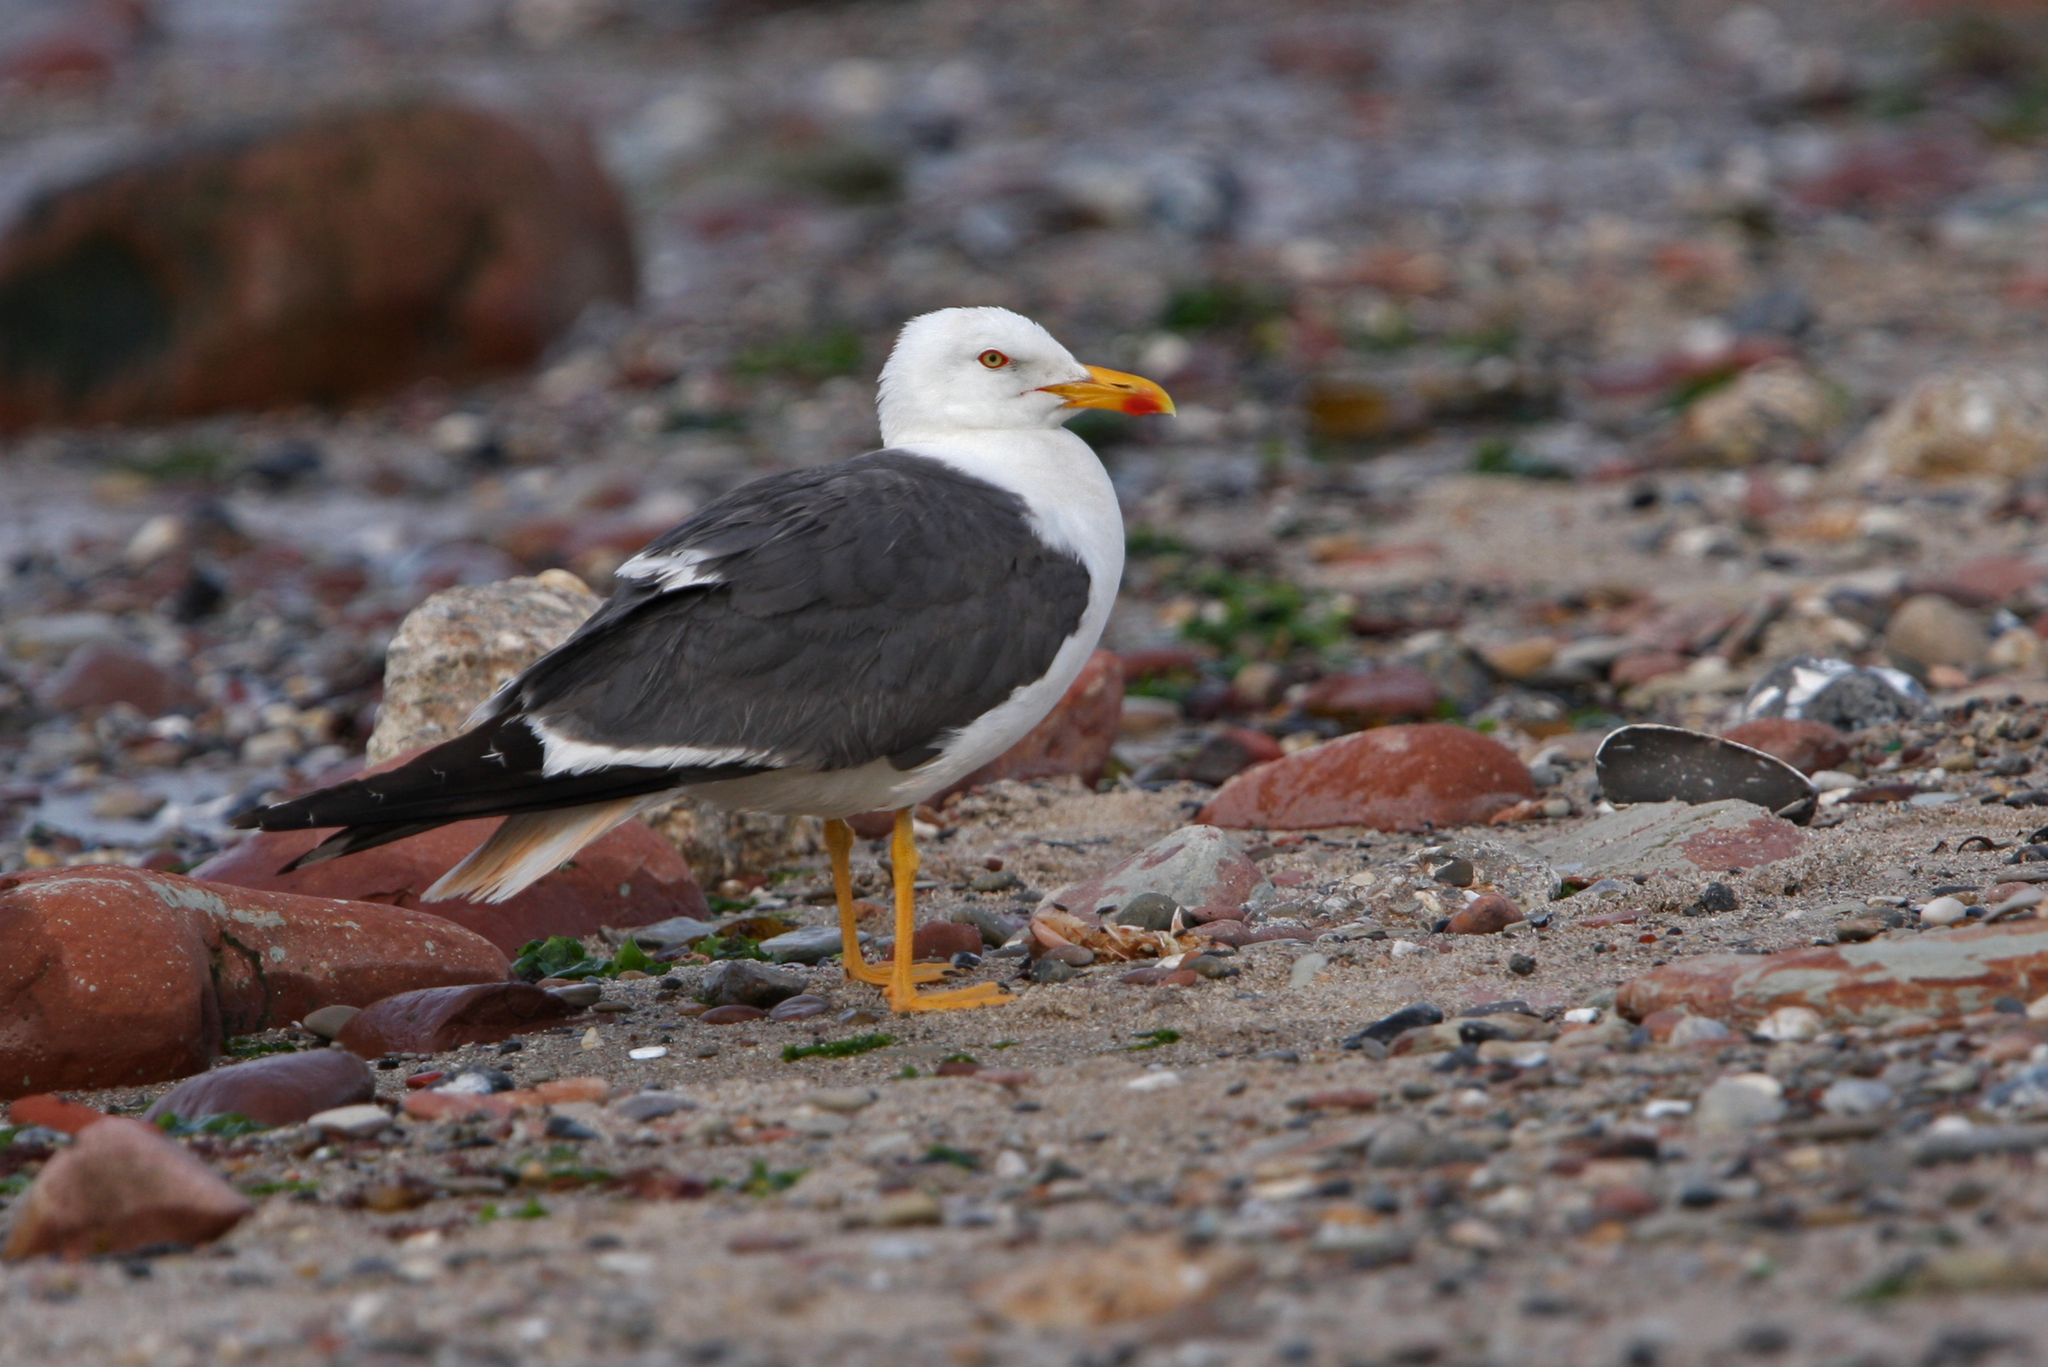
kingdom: Animalia
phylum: Chordata
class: Aves
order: Charadriiformes
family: Laridae
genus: Larus
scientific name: Larus fuscus
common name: Lesser black-backed gull
